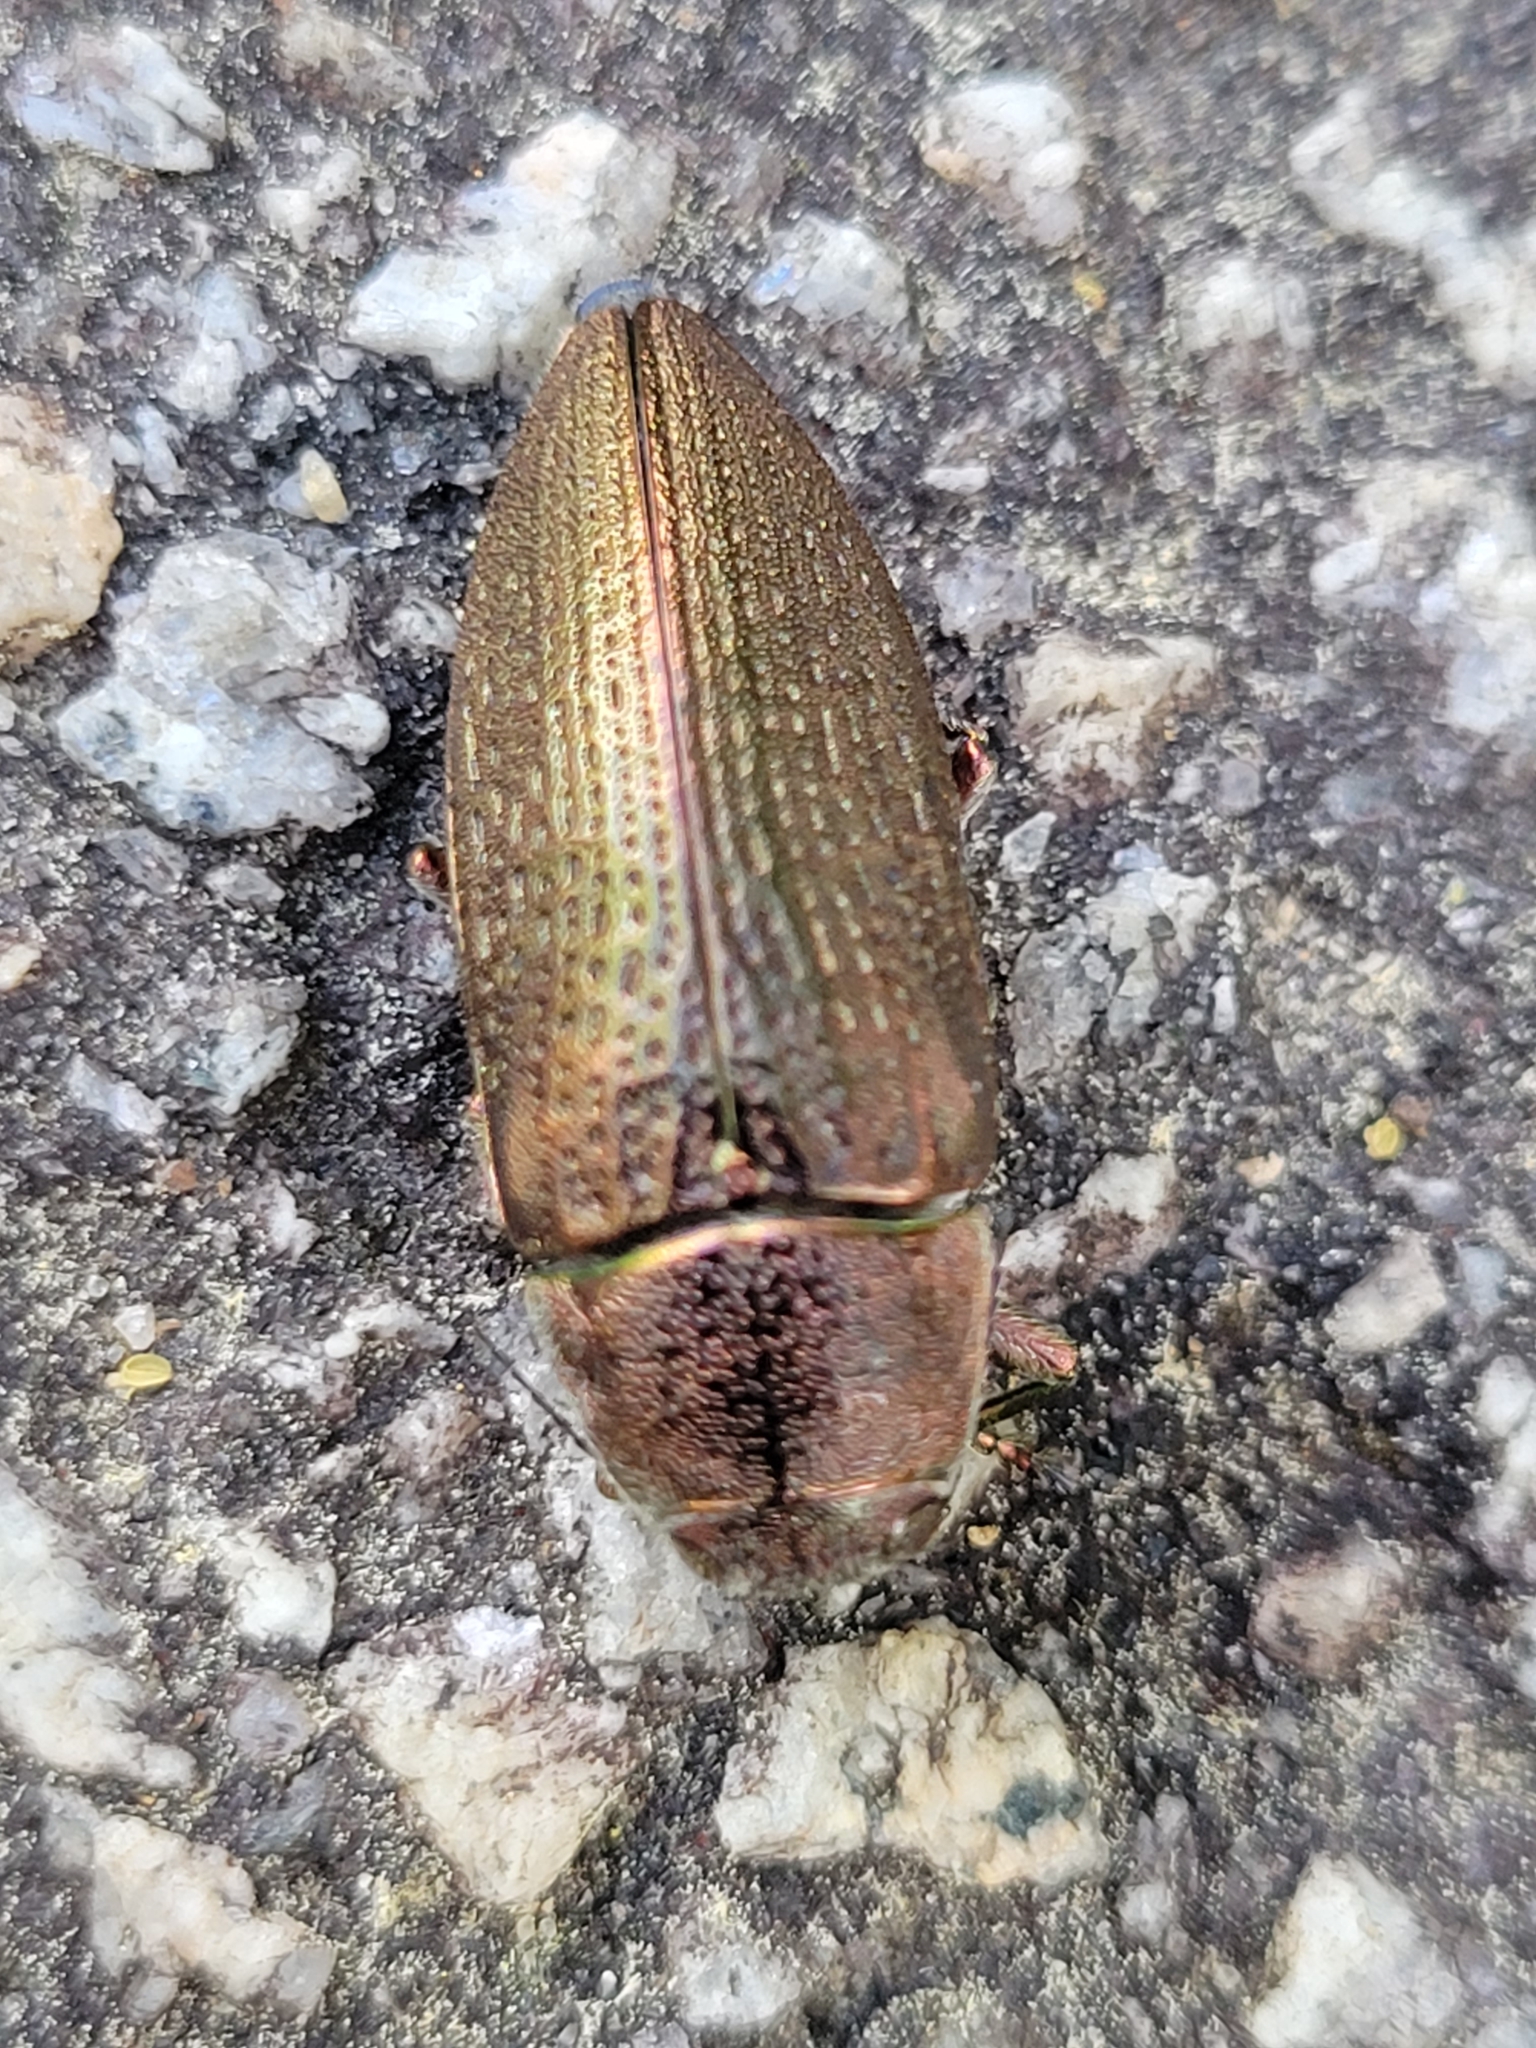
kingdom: Animalia
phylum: Arthropoda
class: Insecta
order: Coleoptera
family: Buprestidae
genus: Buprestis
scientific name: Buprestis apricans
